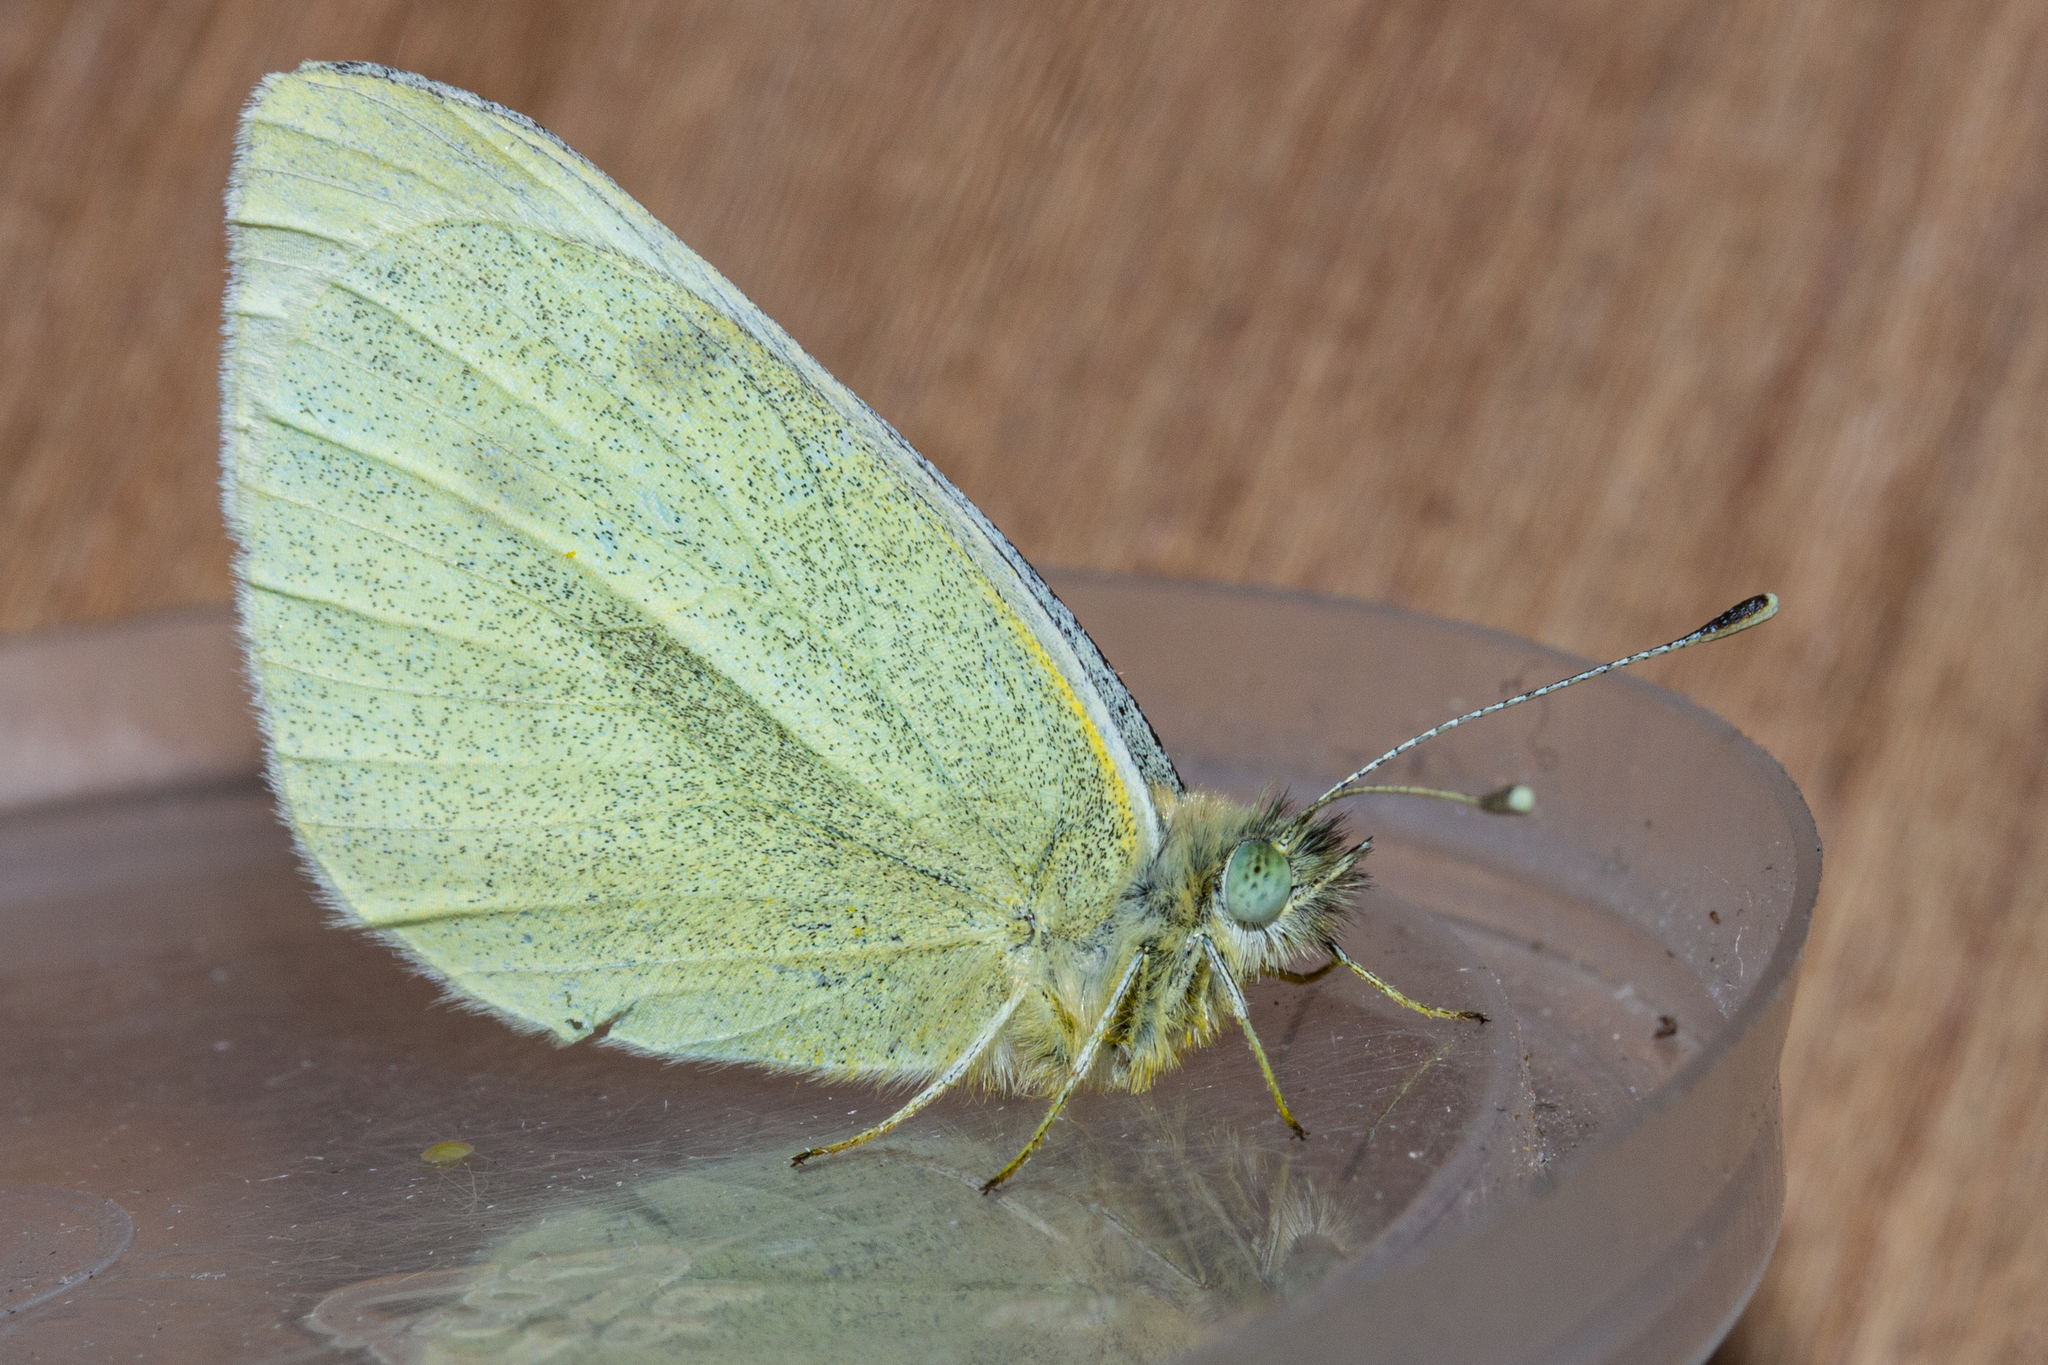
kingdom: Animalia
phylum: Arthropoda
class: Insecta
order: Lepidoptera
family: Pieridae
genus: Pieris
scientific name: Pieris rapae
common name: Small white
